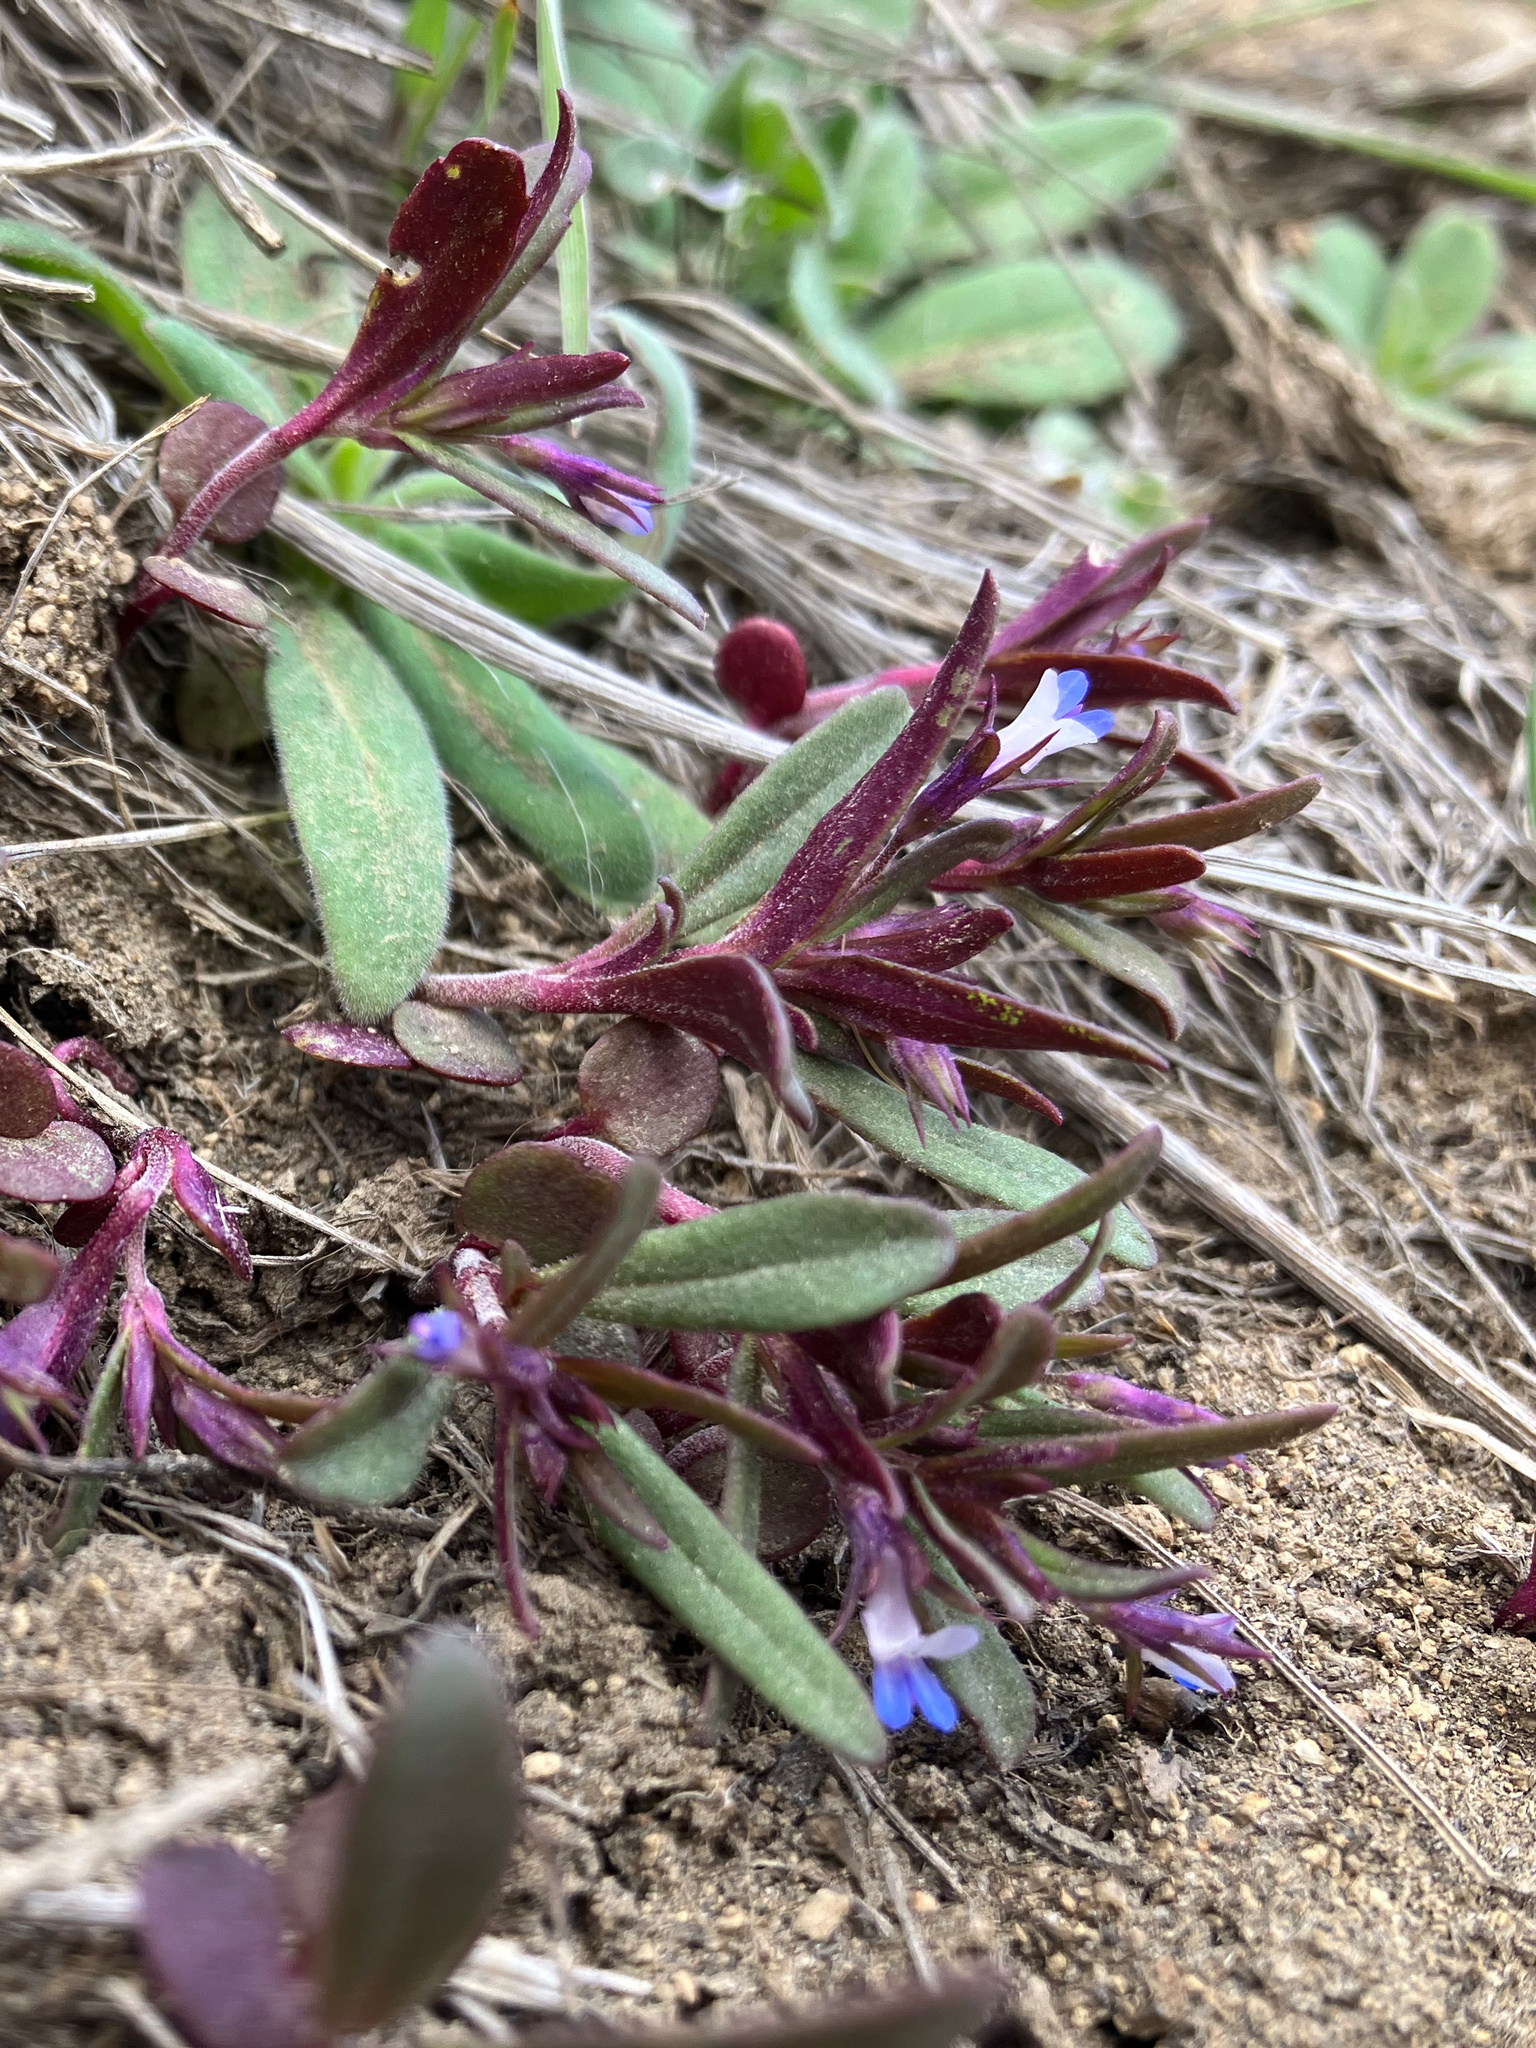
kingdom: Plantae
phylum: Tracheophyta
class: Magnoliopsida
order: Lamiales
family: Plantaginaceae
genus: Collinsia
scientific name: Collinsia parviflora
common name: Blue-lips
